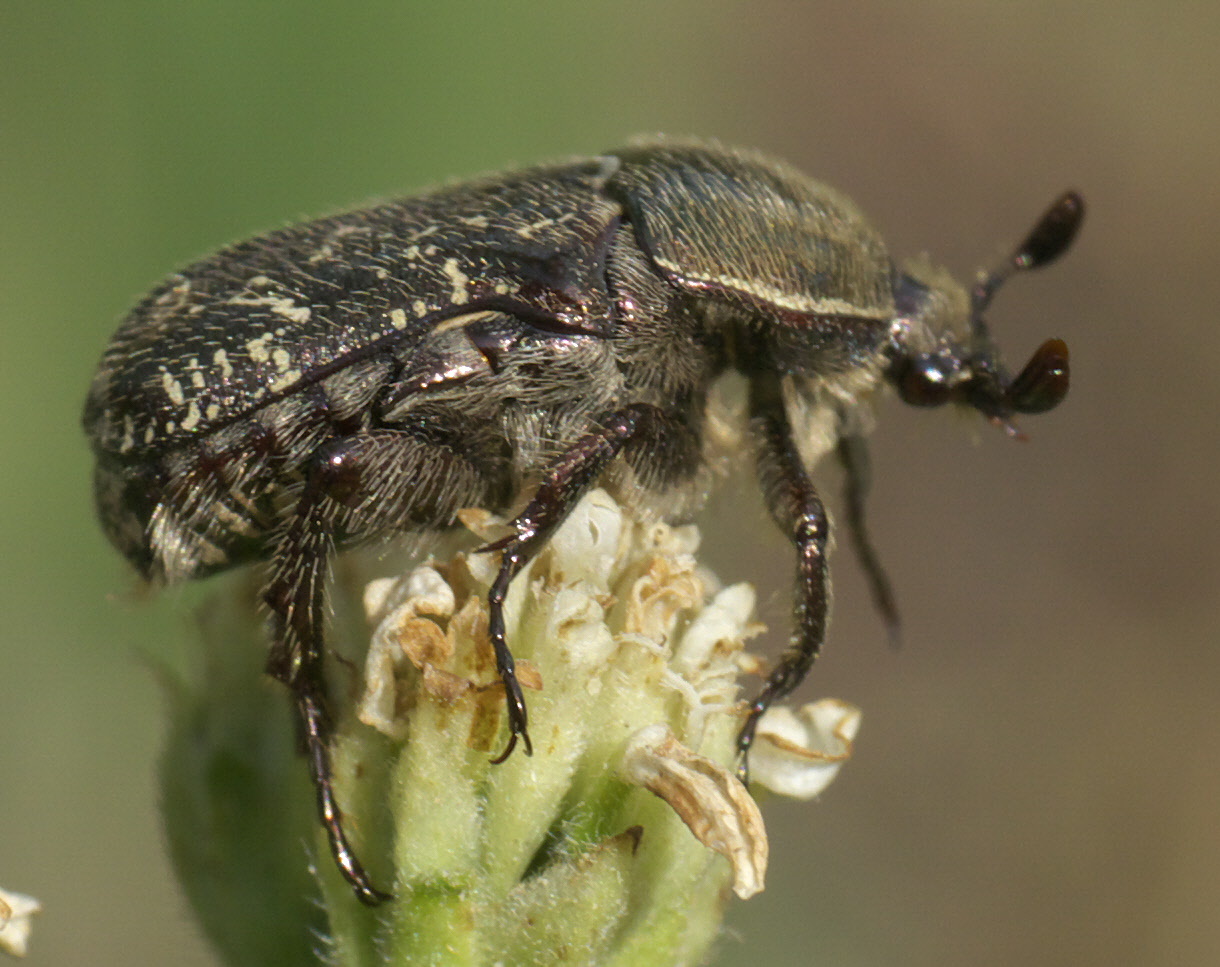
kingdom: Animalia
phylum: Arthropoda
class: Insecta
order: Coleoptera
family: Scarabaeidae
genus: Euphoria
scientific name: Euphoria sepulcralis
